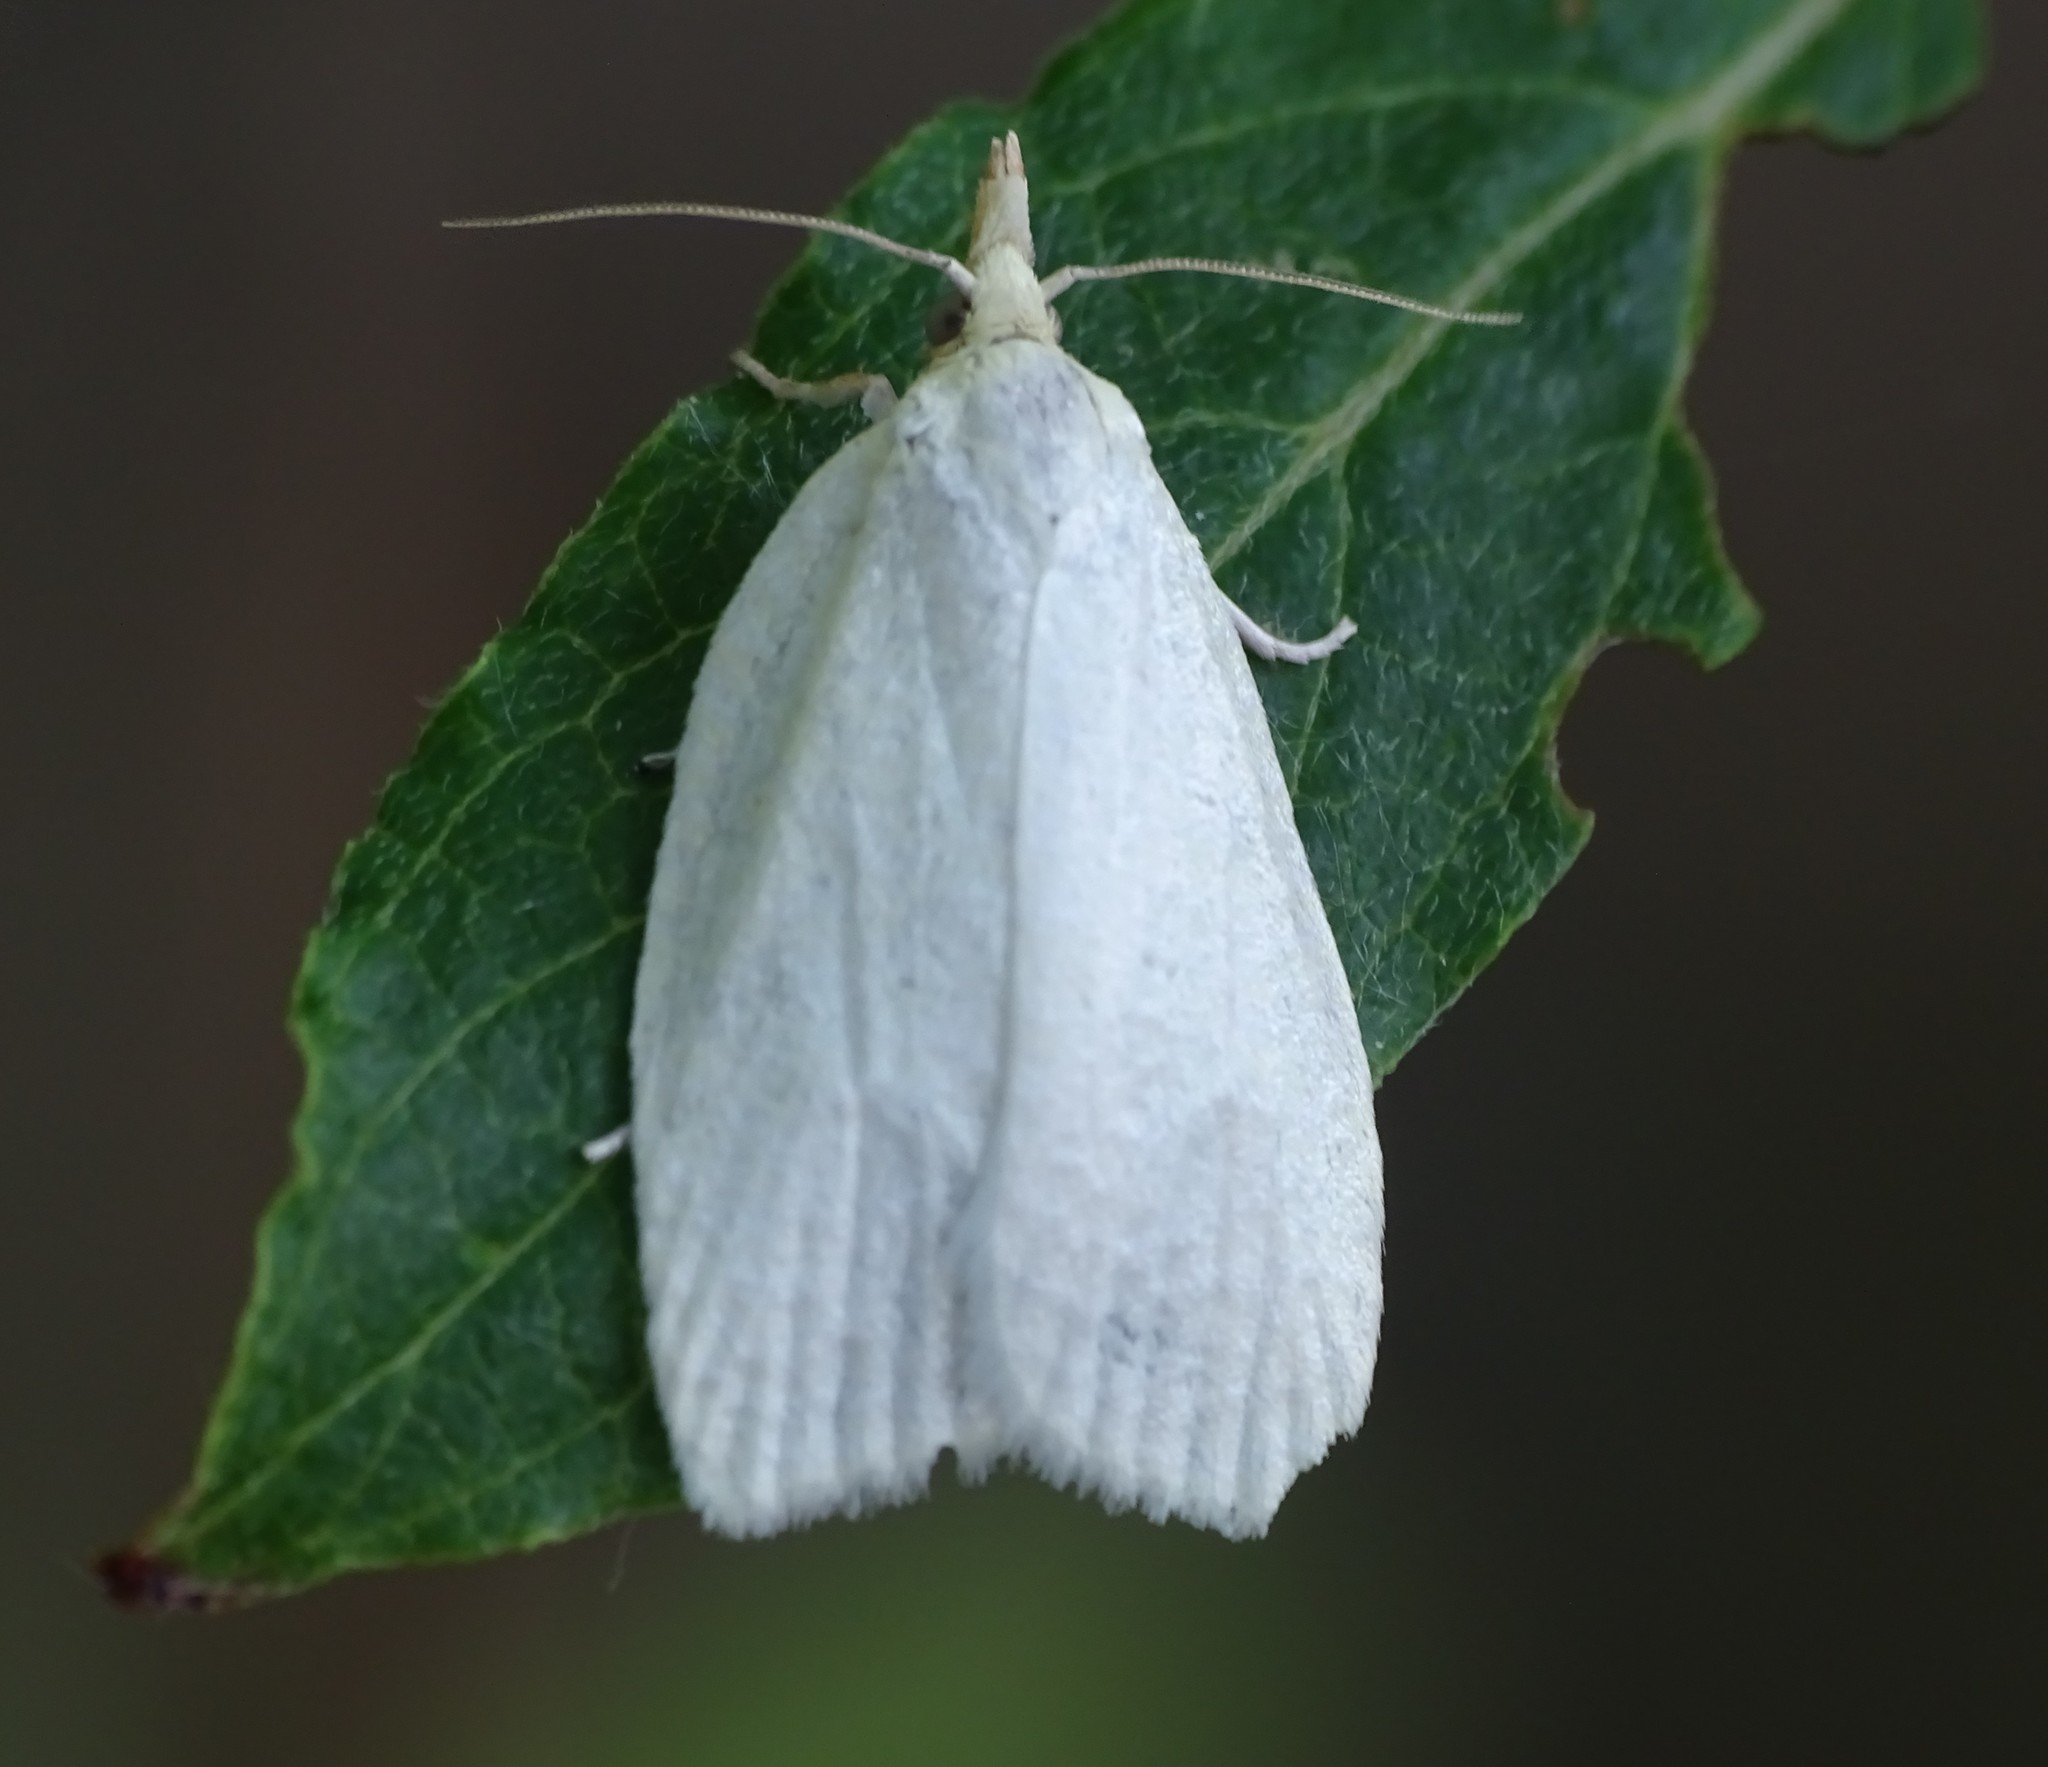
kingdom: Animalia
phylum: Arthropoda
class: Insecta
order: Lepidoptera
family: Tortricidae
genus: Cenopis
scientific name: Cenopis pettitana
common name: Maple-basswood leafroller moth
